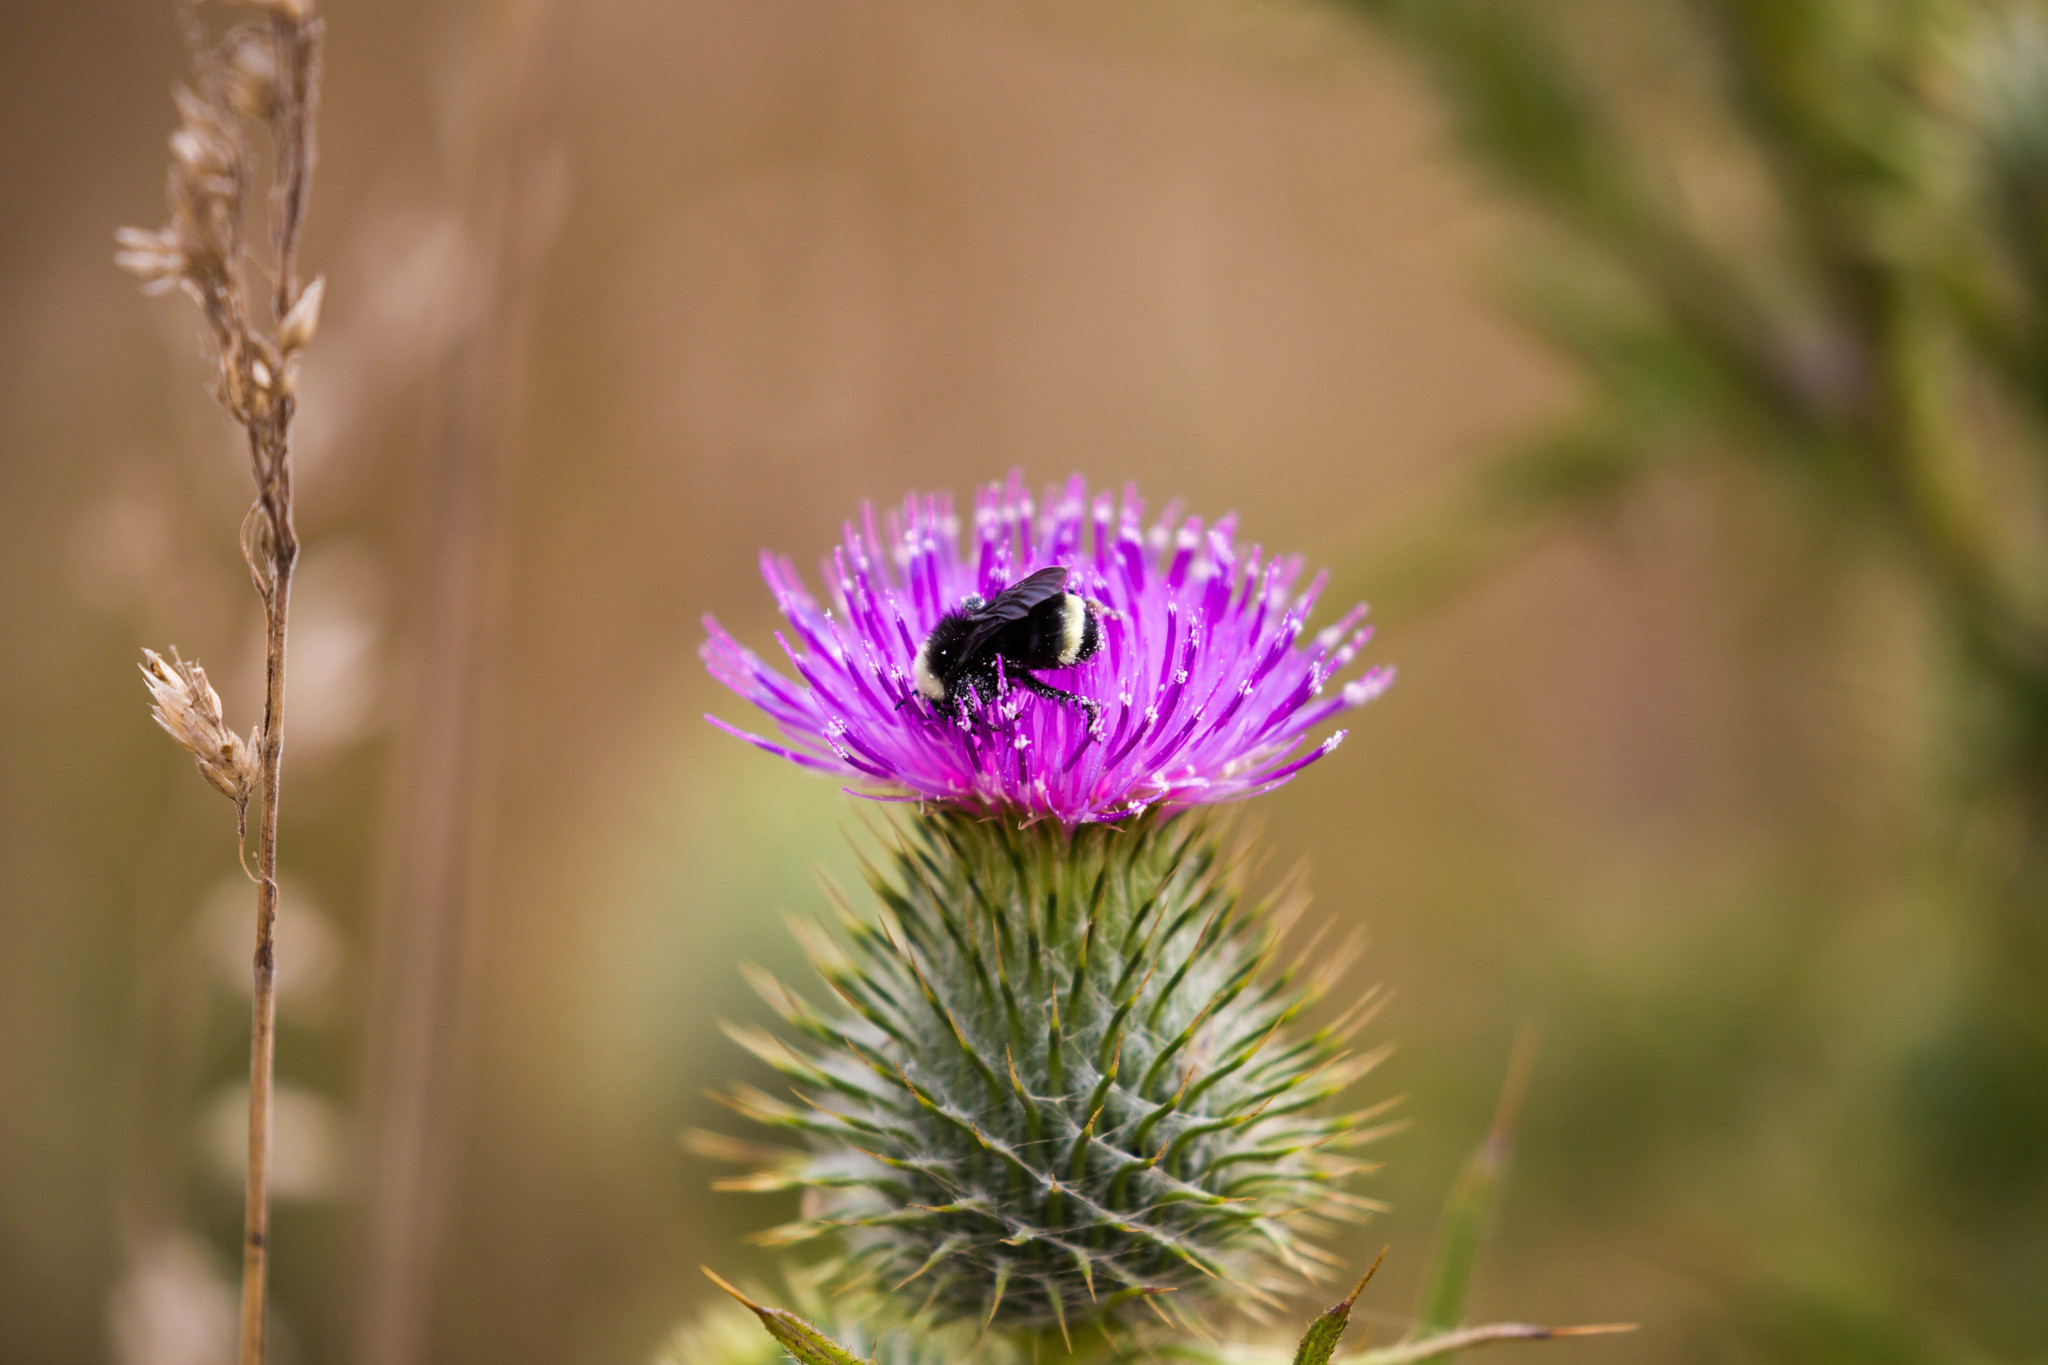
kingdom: Animalia
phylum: Arthropoda
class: Insecta
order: Hymenoptera
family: Apidae
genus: Bombus
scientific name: Bombus vosnesenskii
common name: Vosnesensky bumble bee
